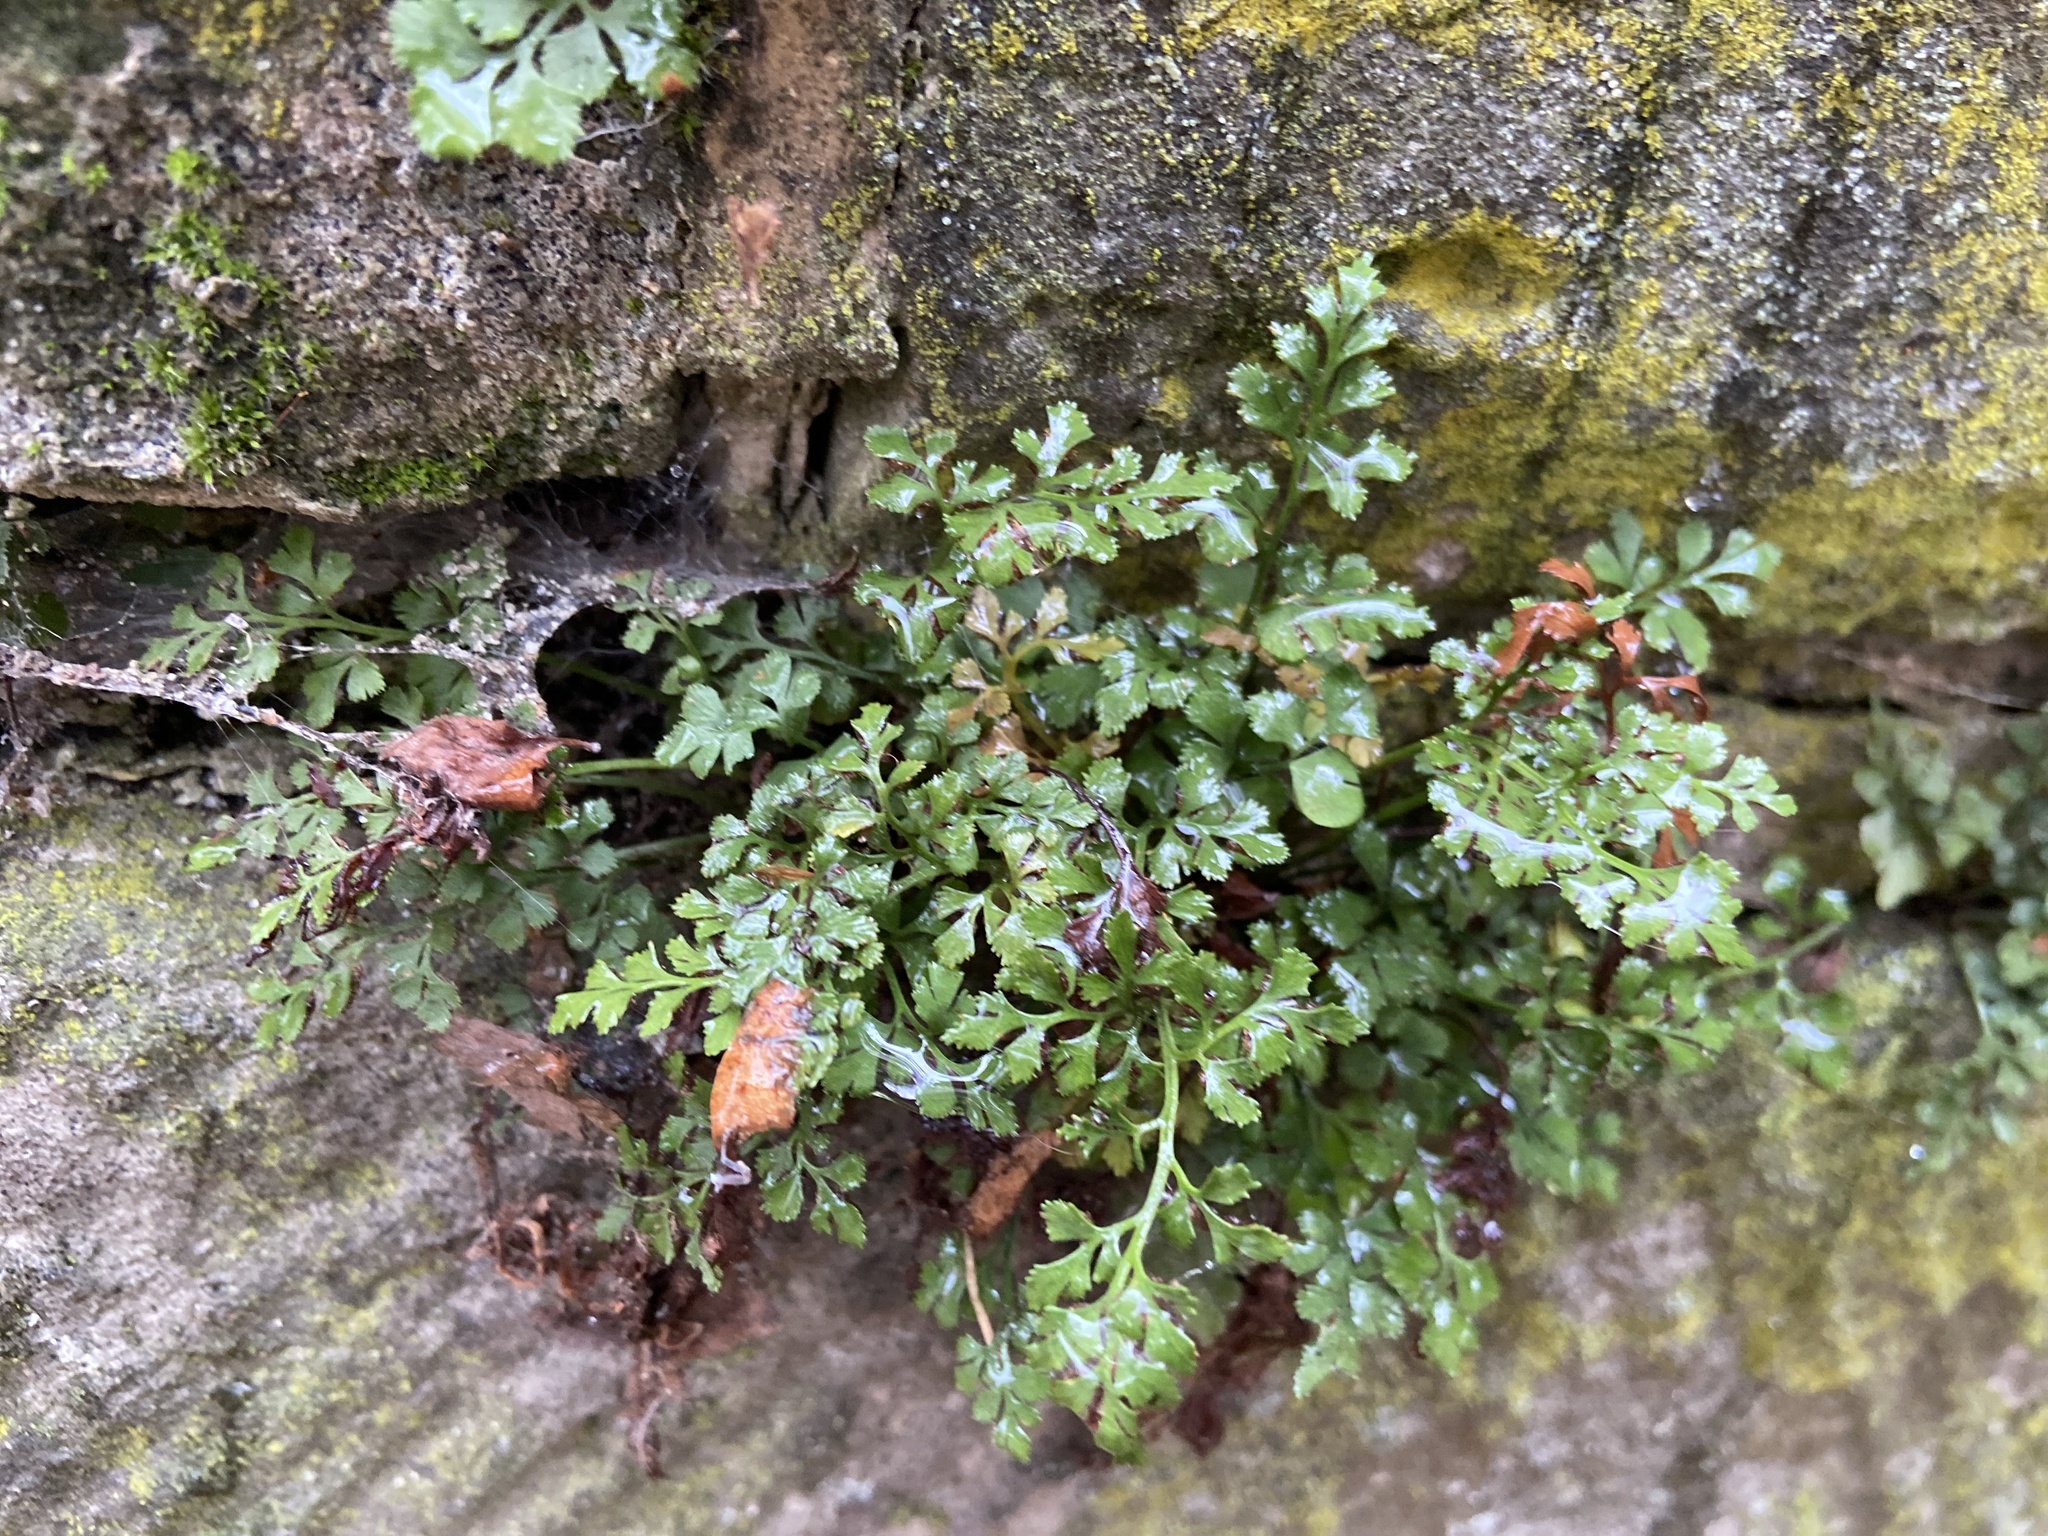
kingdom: Plantae
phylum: Tracheophyta
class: Polypodiopsida
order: Polypodiales
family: Aspleniaceae
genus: Asplenium
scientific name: Asplenium ruta-muraria
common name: Wall-rue
